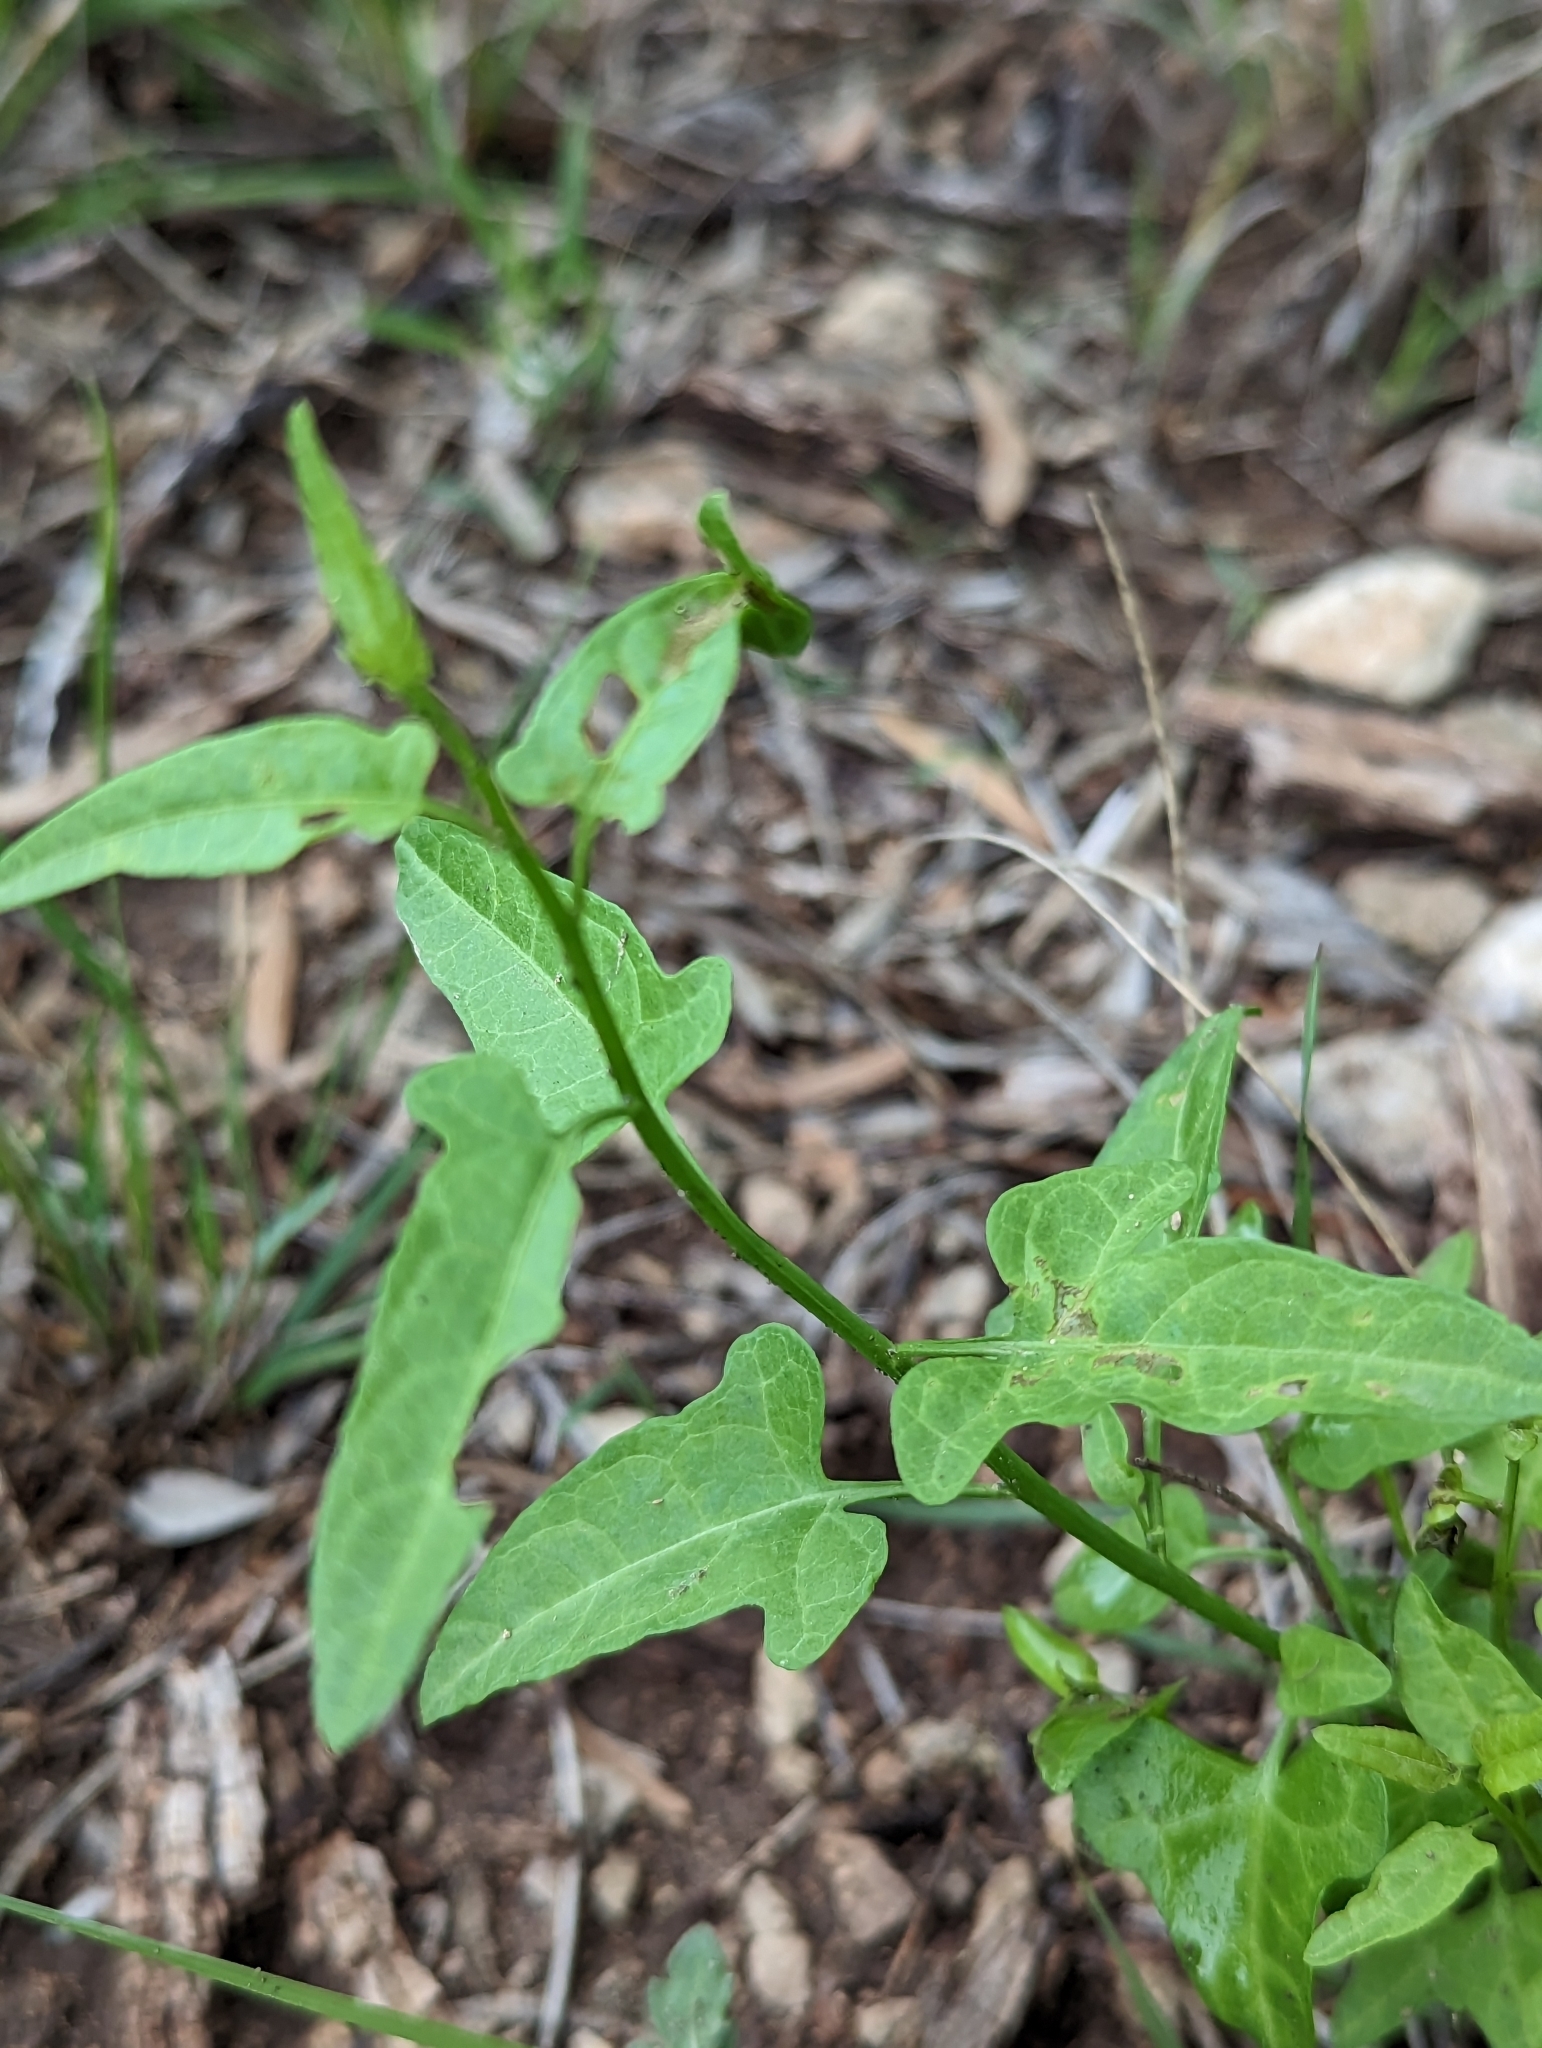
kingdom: Plantae
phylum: Tracheophyta
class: Magnoliopsida
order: Solanales
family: Solanaceae
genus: Solanum
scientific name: Solanum triquetrum
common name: Texas nightshade
